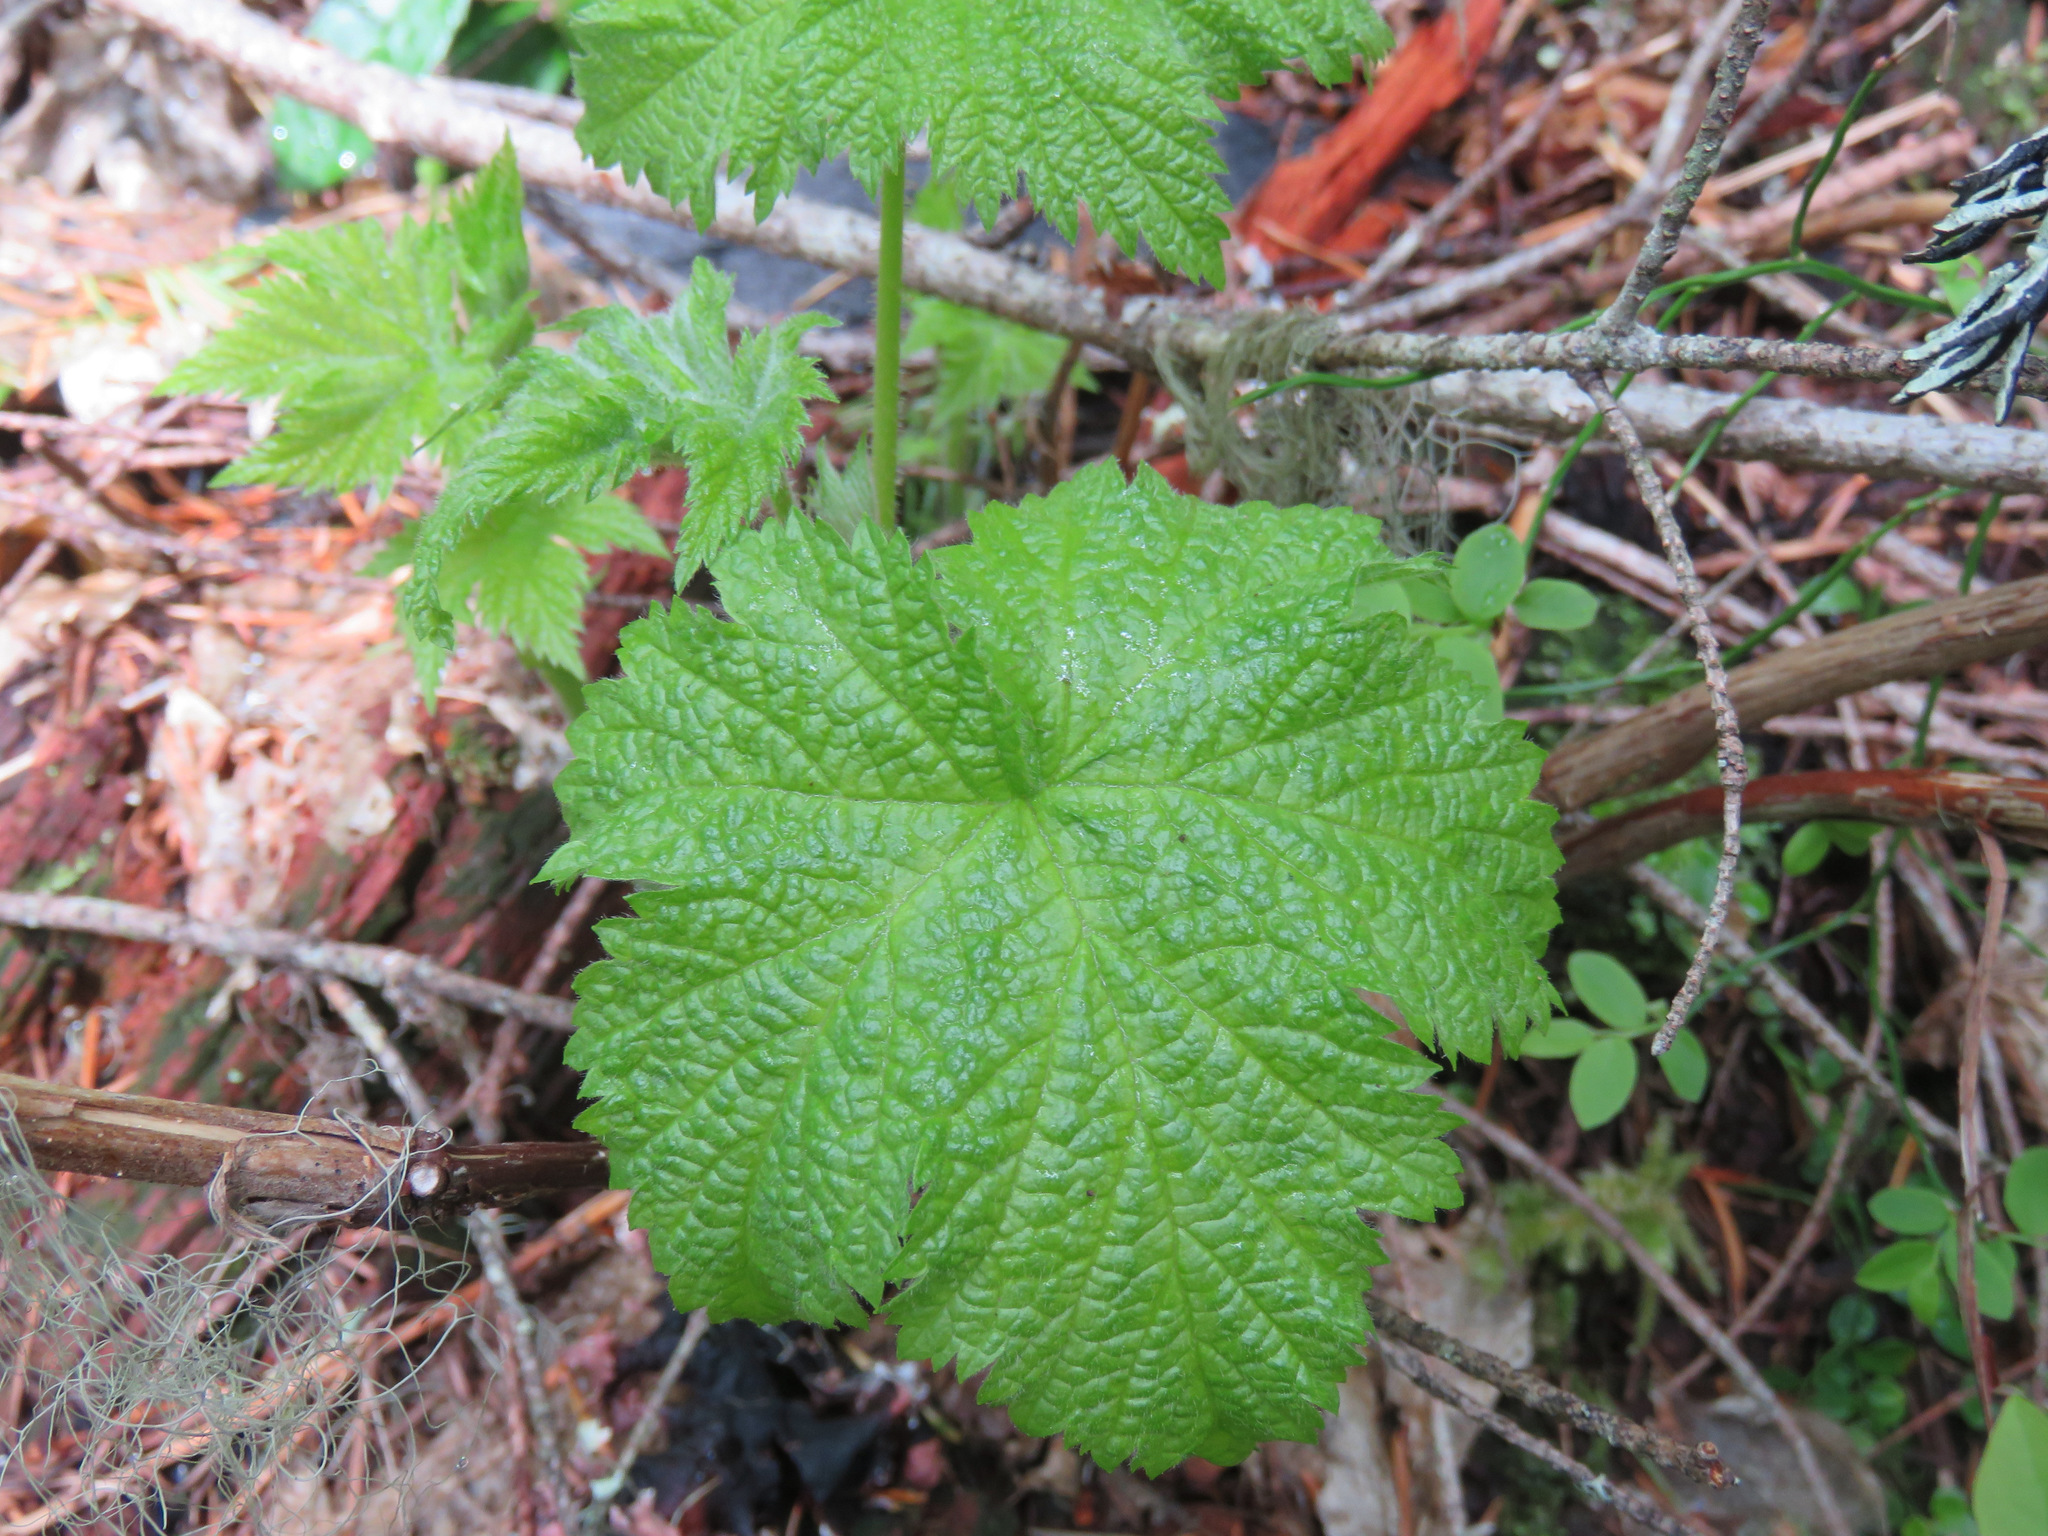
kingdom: Plantae
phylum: Tracheophyta
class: Magnoliopsida
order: Rosales
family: Rosaceae
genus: Rubus
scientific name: Rubus parviflorus
